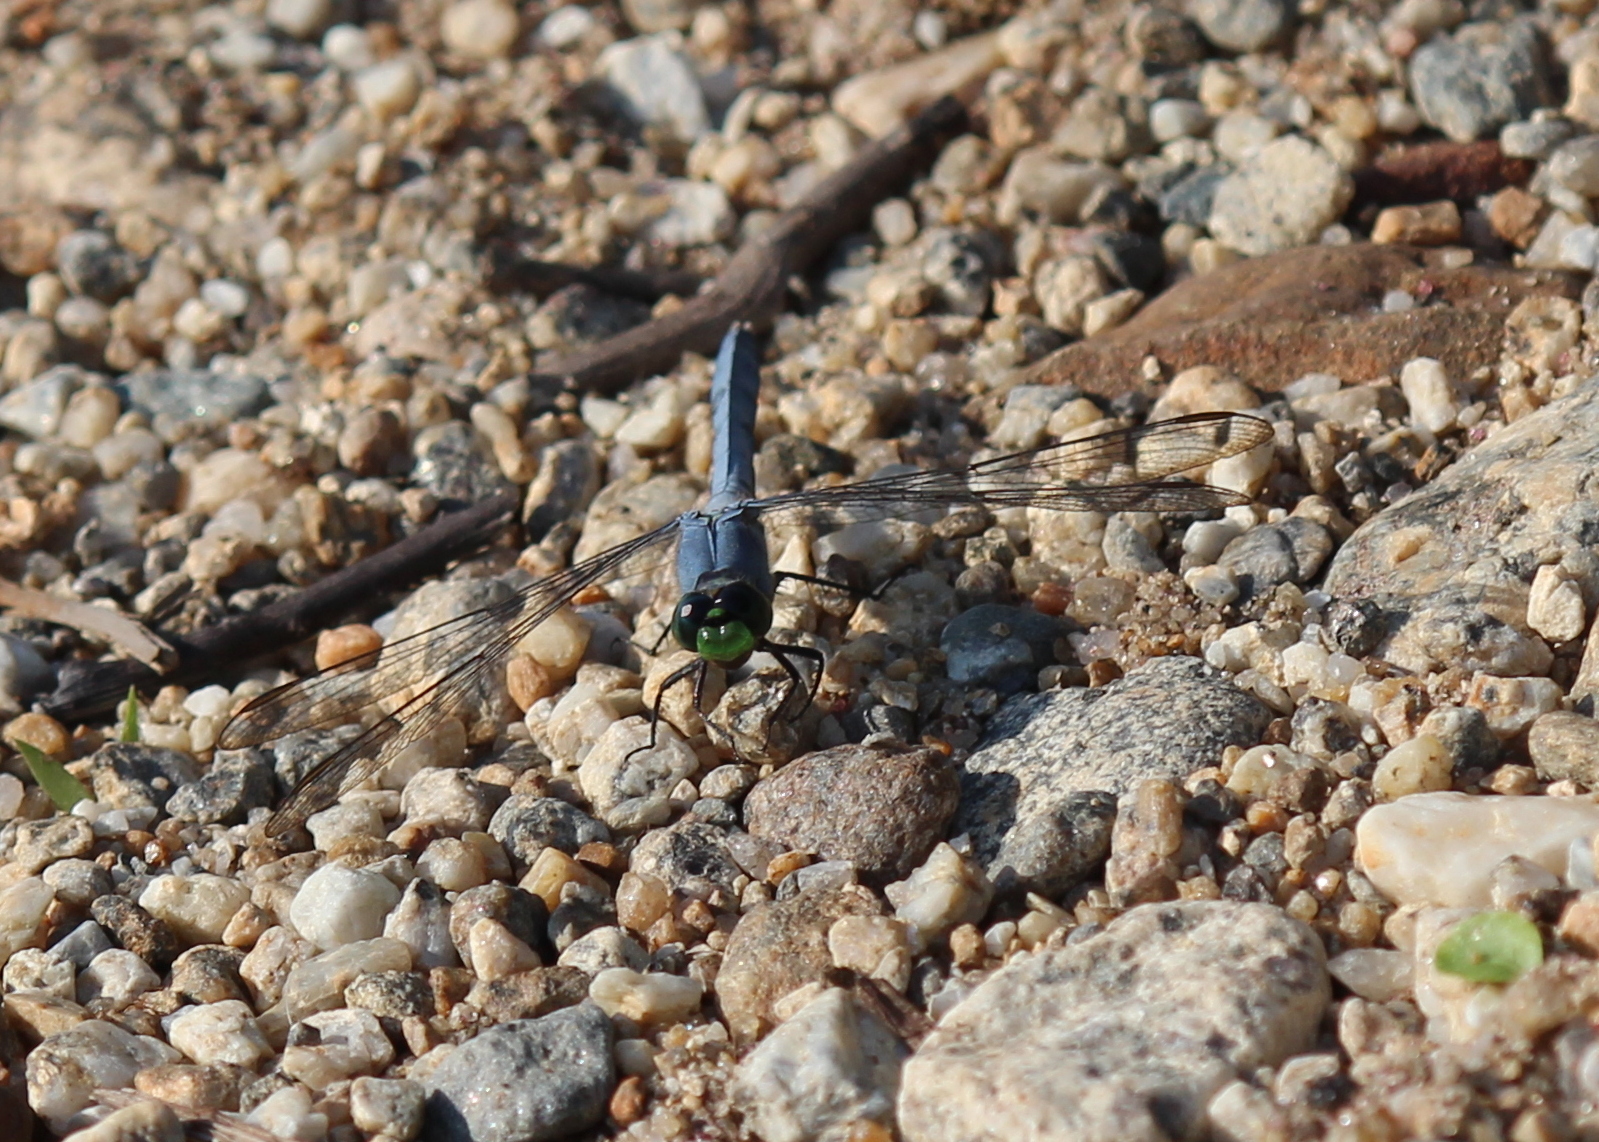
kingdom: Animalia
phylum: Arthropoda
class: Insecta
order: Odonata
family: Libellulidae
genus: Erythemis
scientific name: Erythemis simplicicollis
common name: Eastern pondhawk
